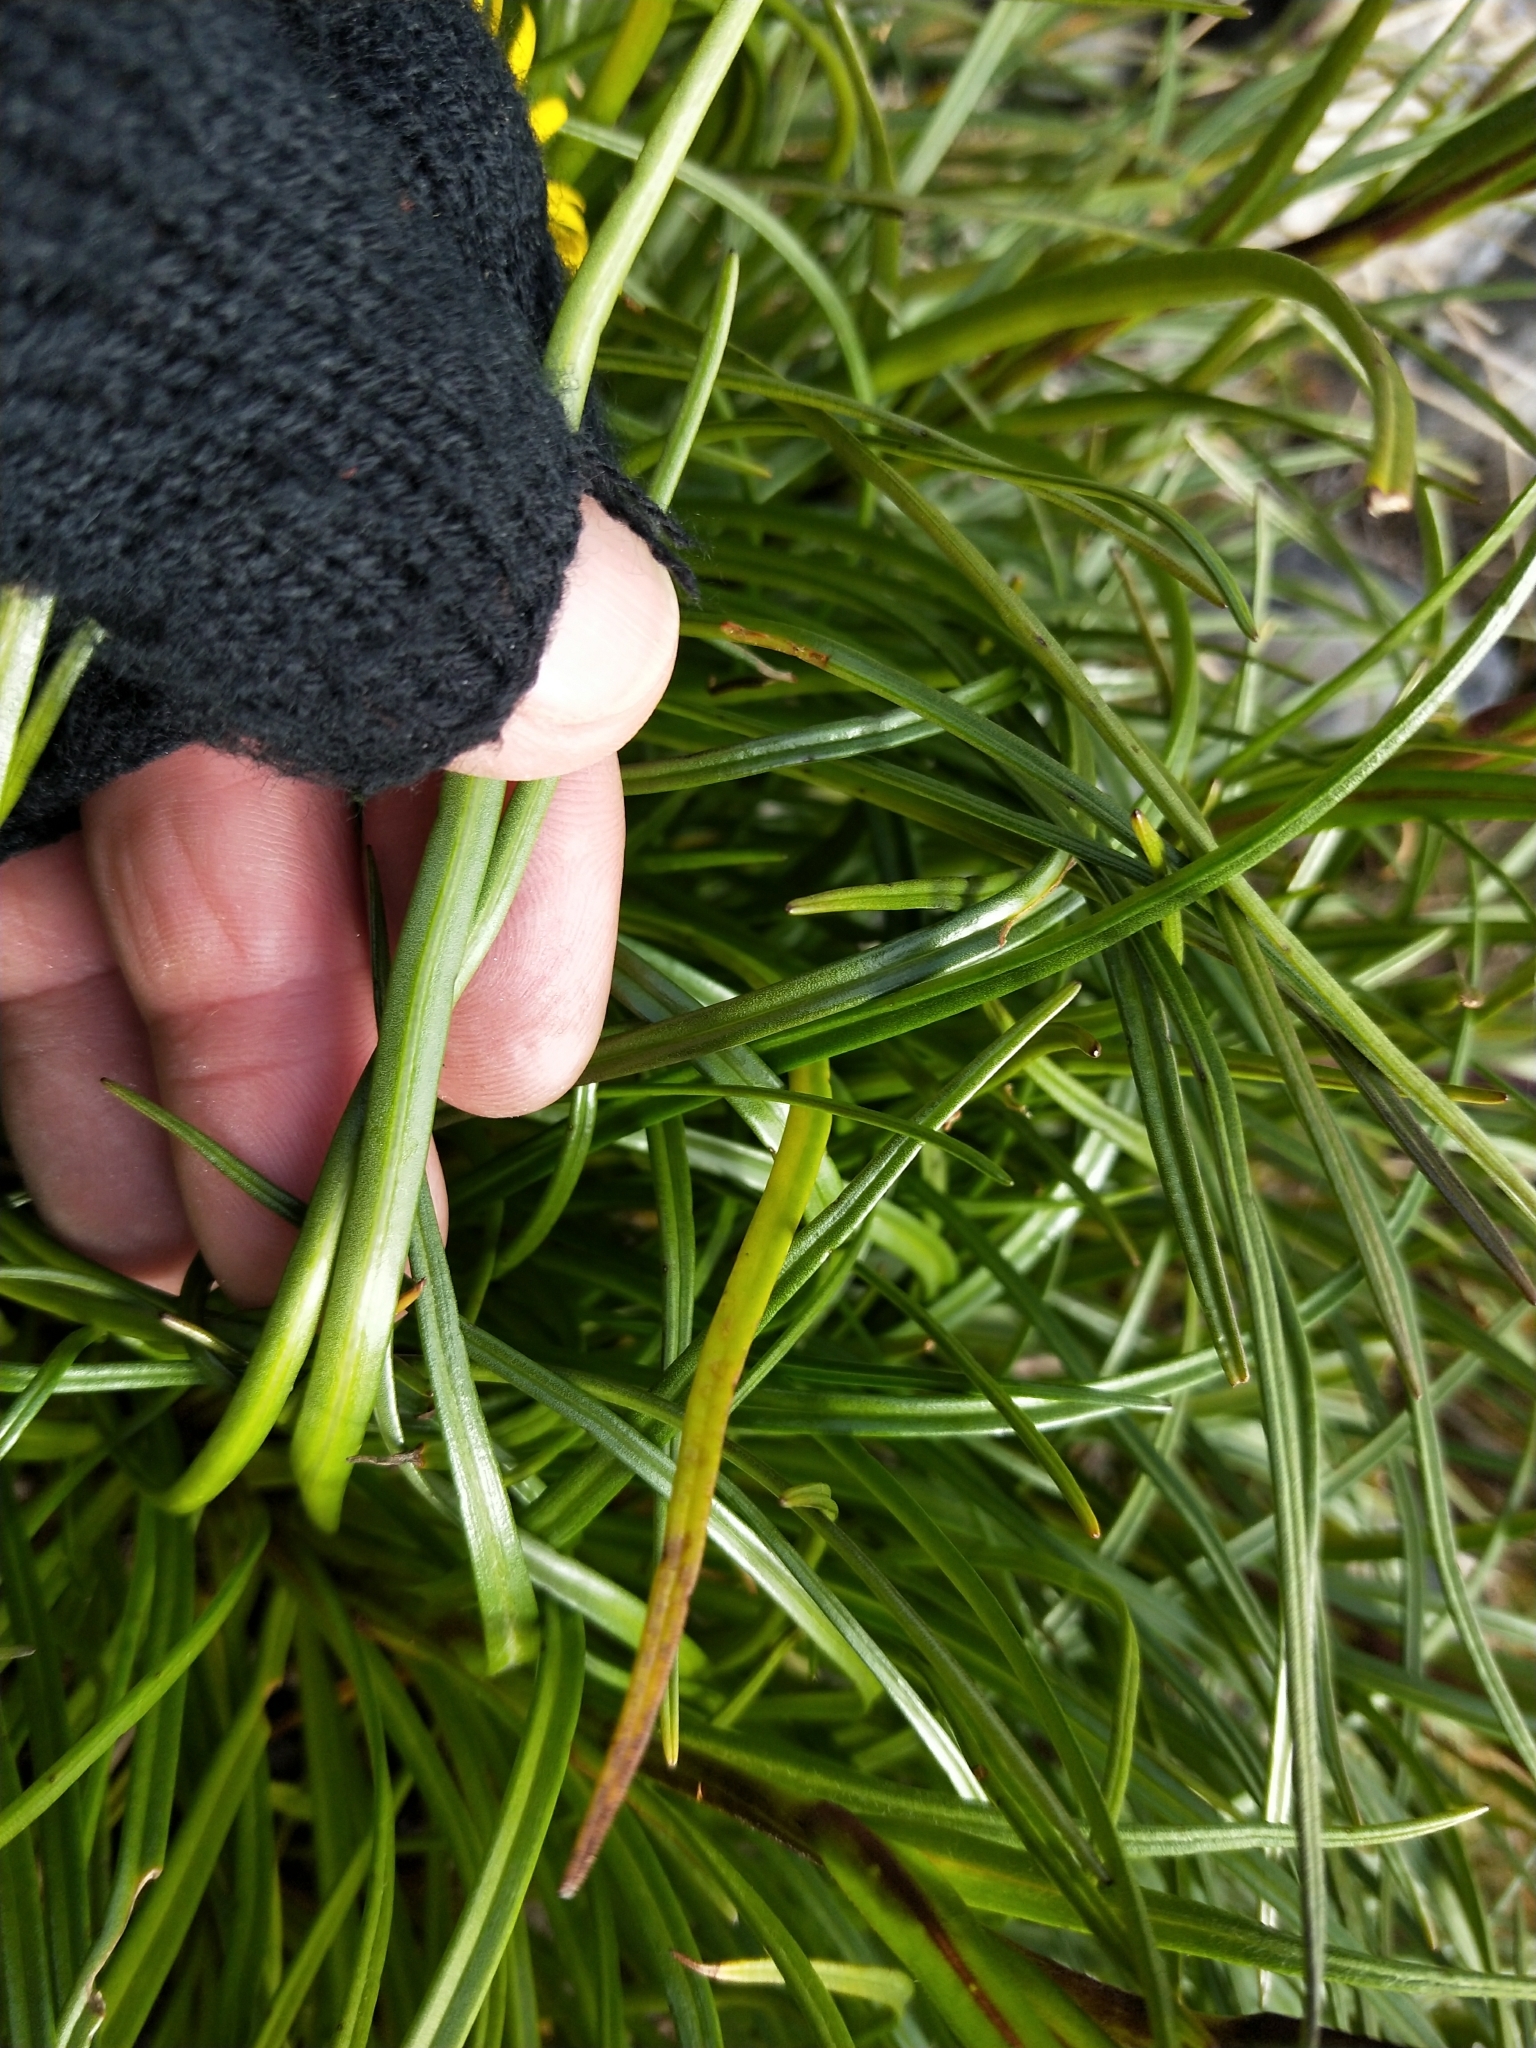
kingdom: Plantae
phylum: Tracheophyta
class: Magnoliopsida
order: Asterales
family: Asteraceae
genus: Dolichoglottis
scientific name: Dolichoglottis lyallii
